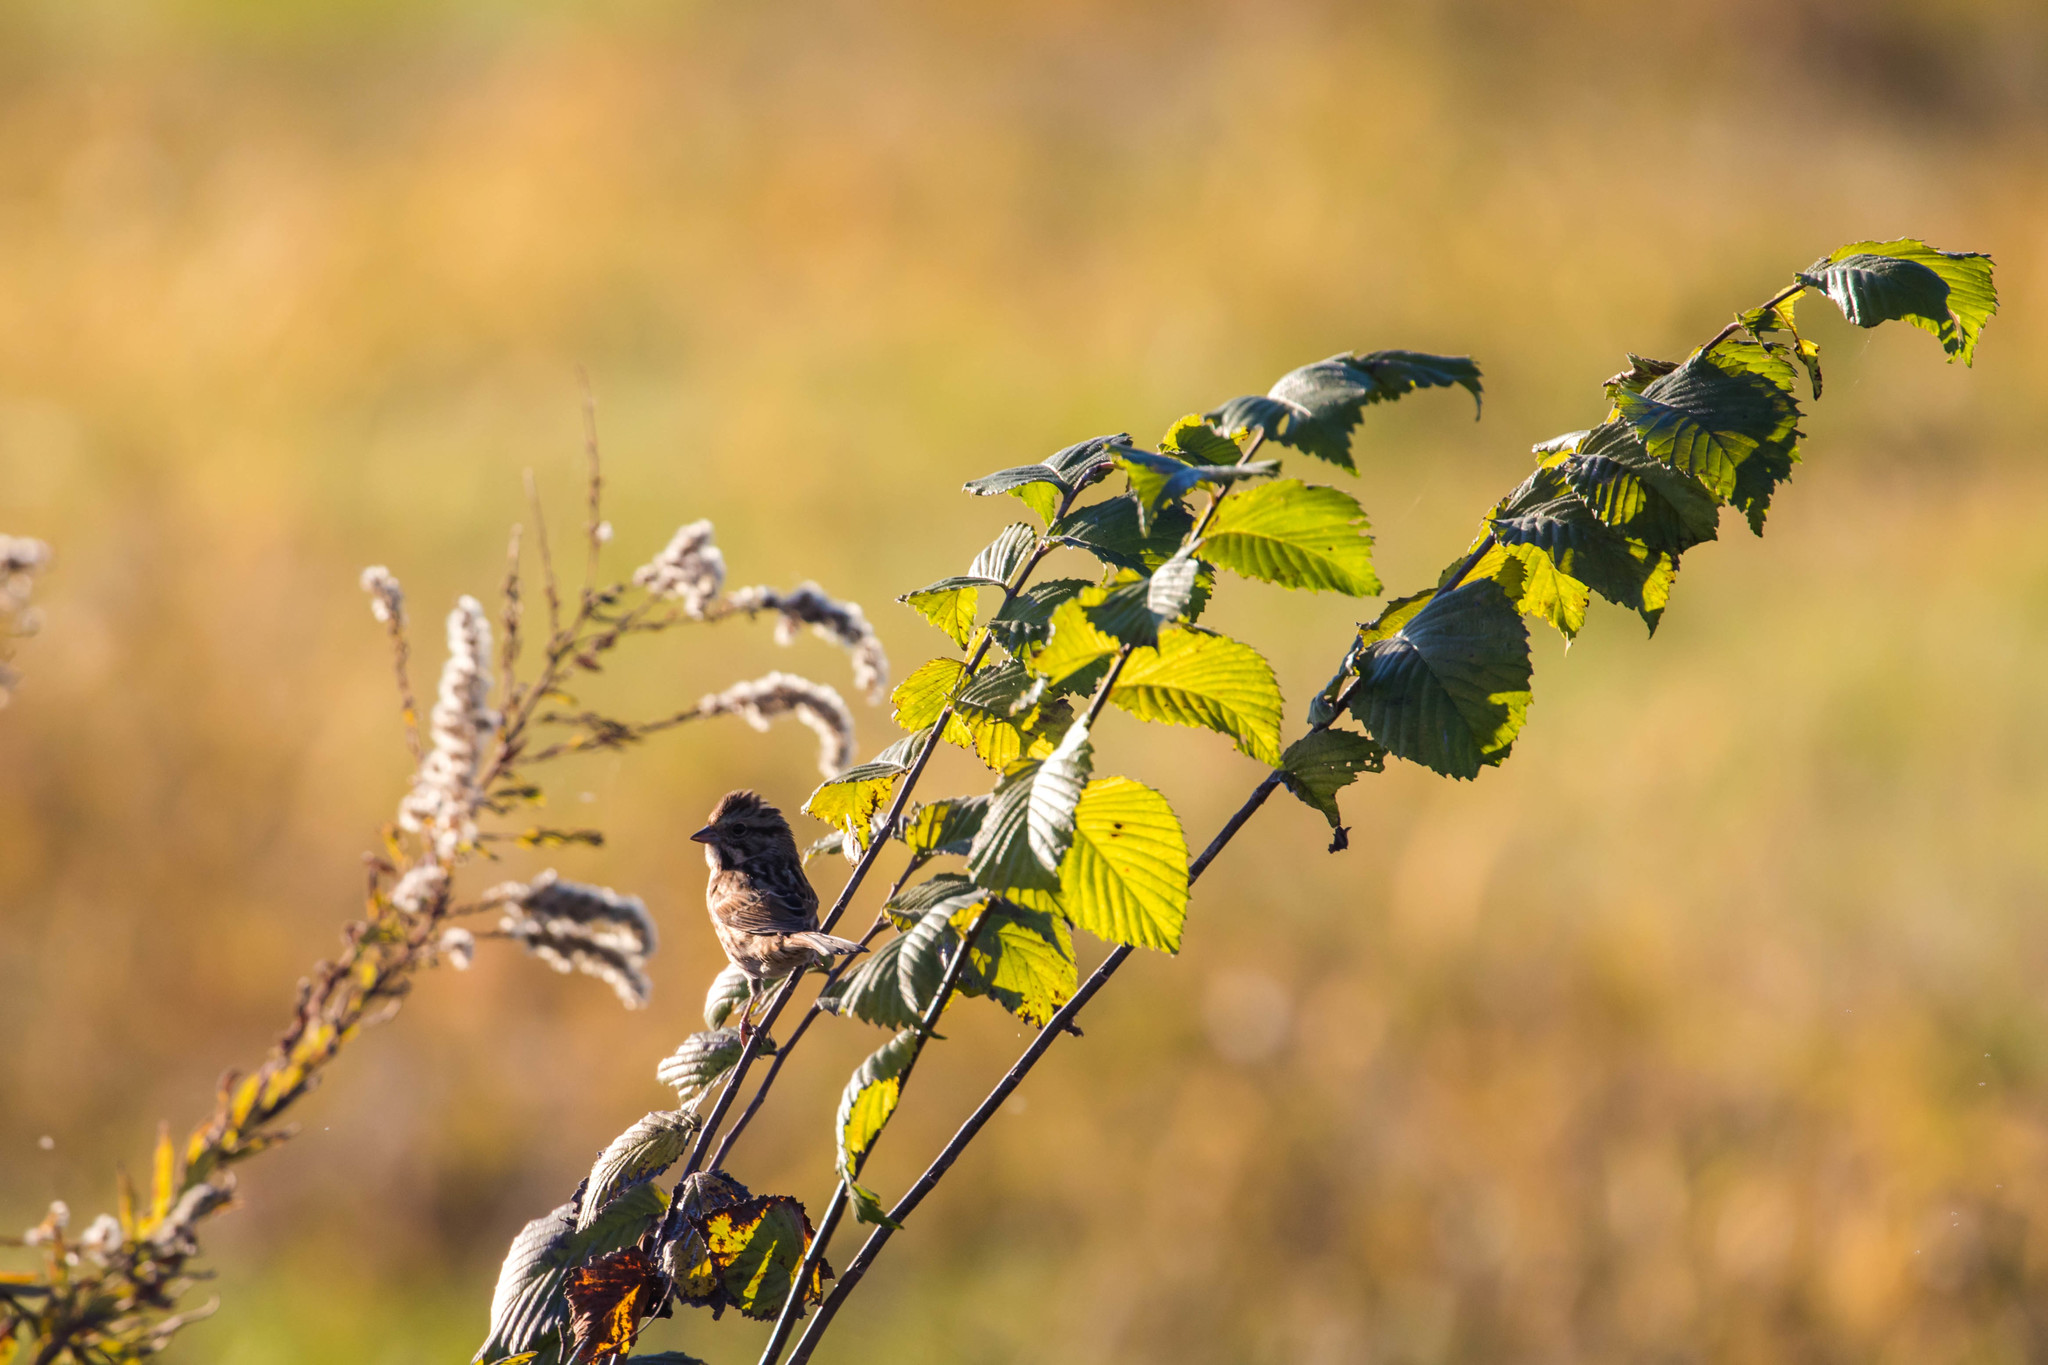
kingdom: Animalia
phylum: Chordata
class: Aves
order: Passeriformes
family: Passerellidae
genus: Melospiza
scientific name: Melospiza melodia
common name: Song sparrow
